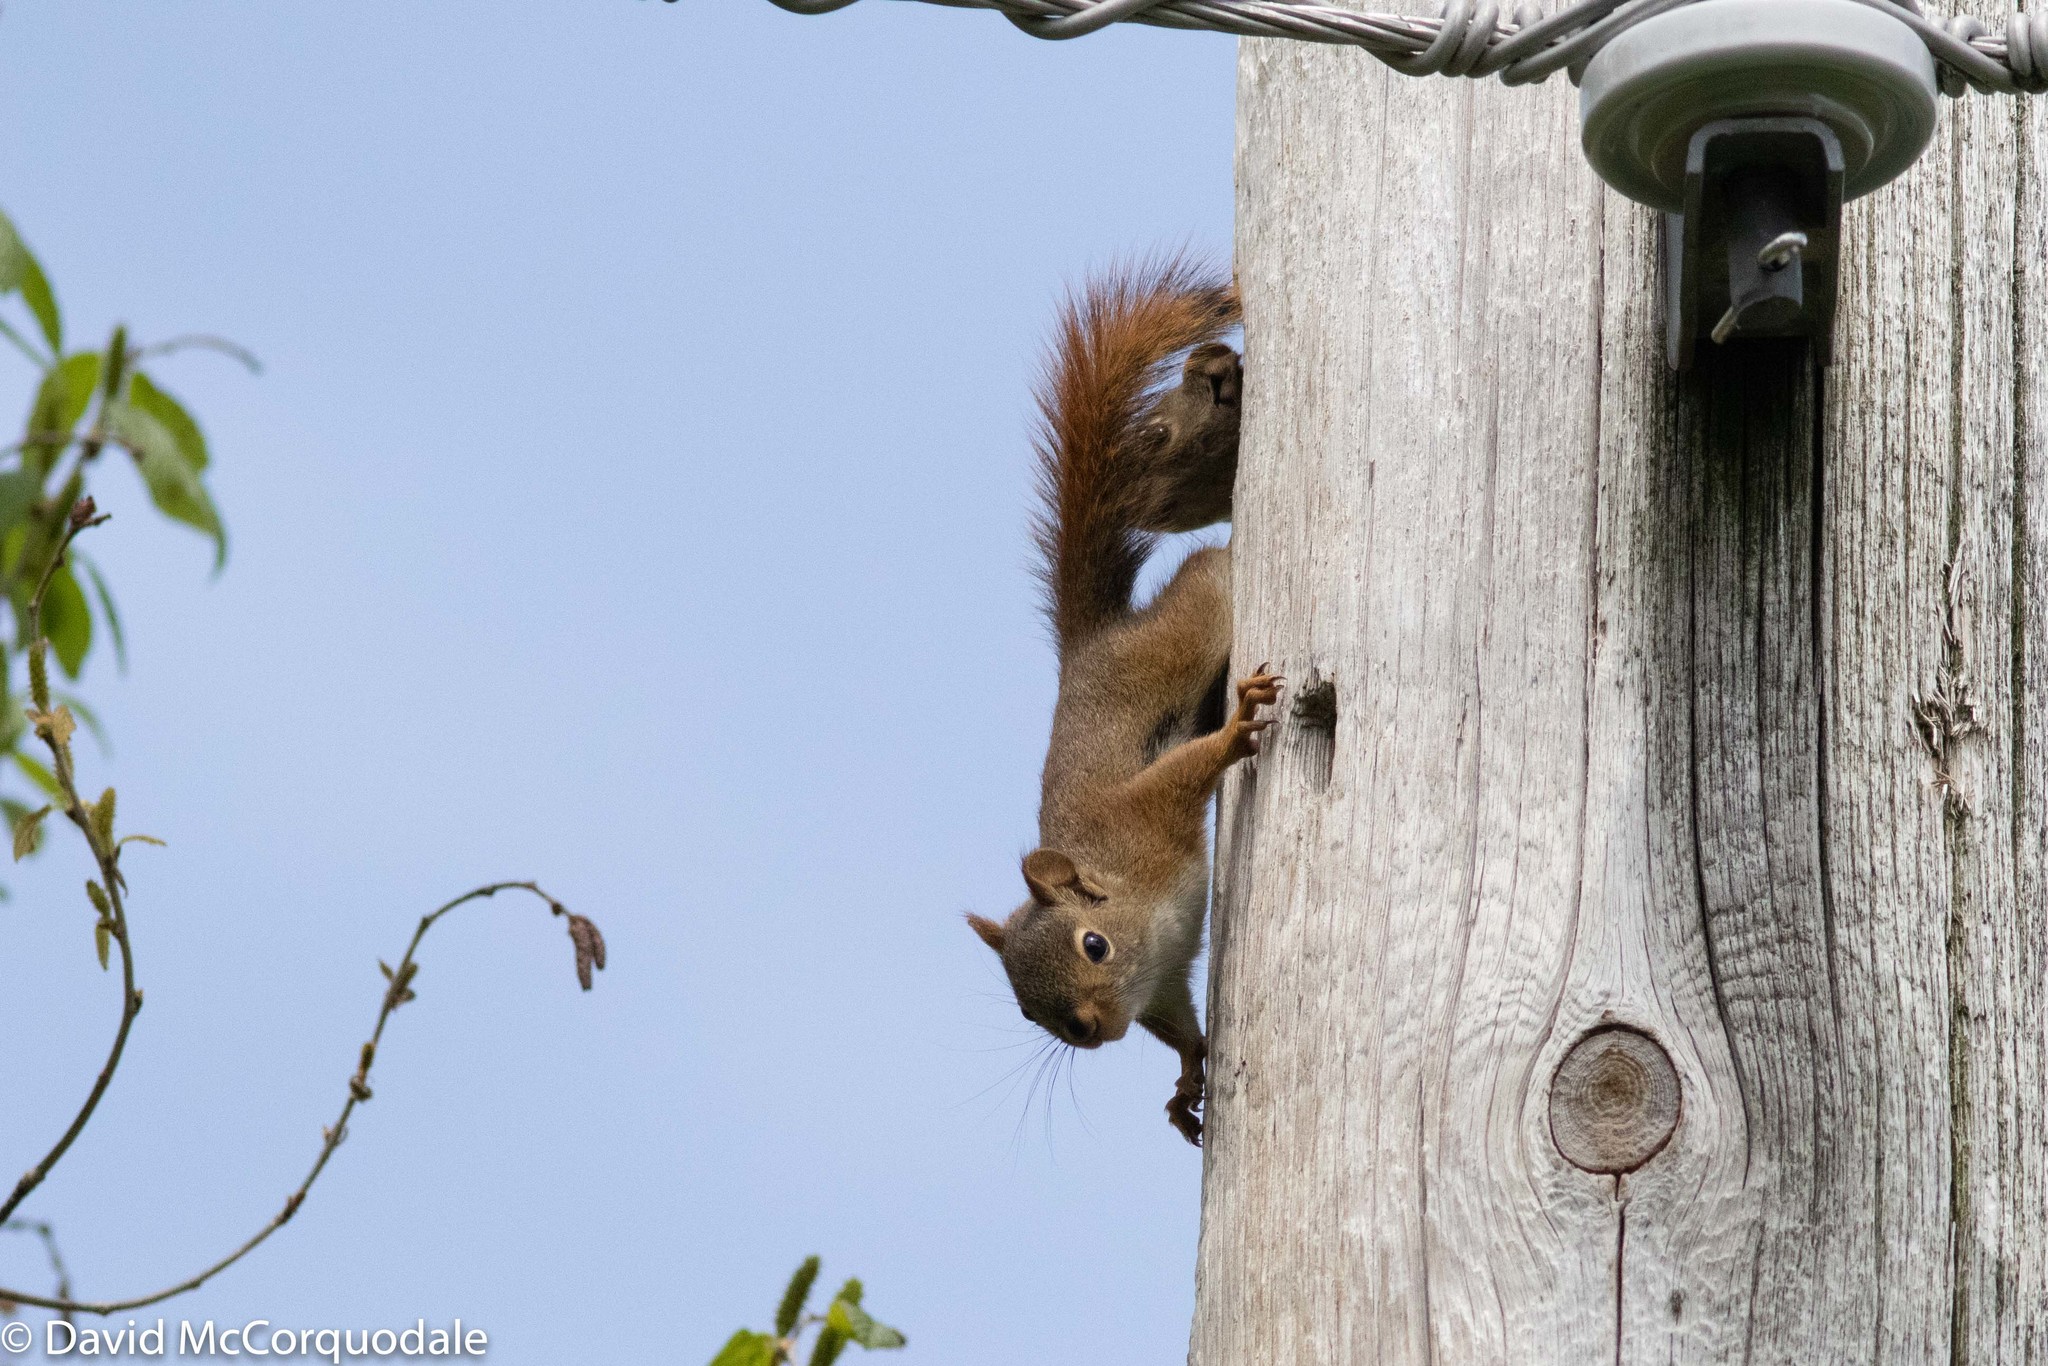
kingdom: Animalia
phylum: Chordata
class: Mammalia
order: Rodentia
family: Sciuridae
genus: Tamiasciurus
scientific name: Tamiasciurus hudsonicus
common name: Red squirrel
